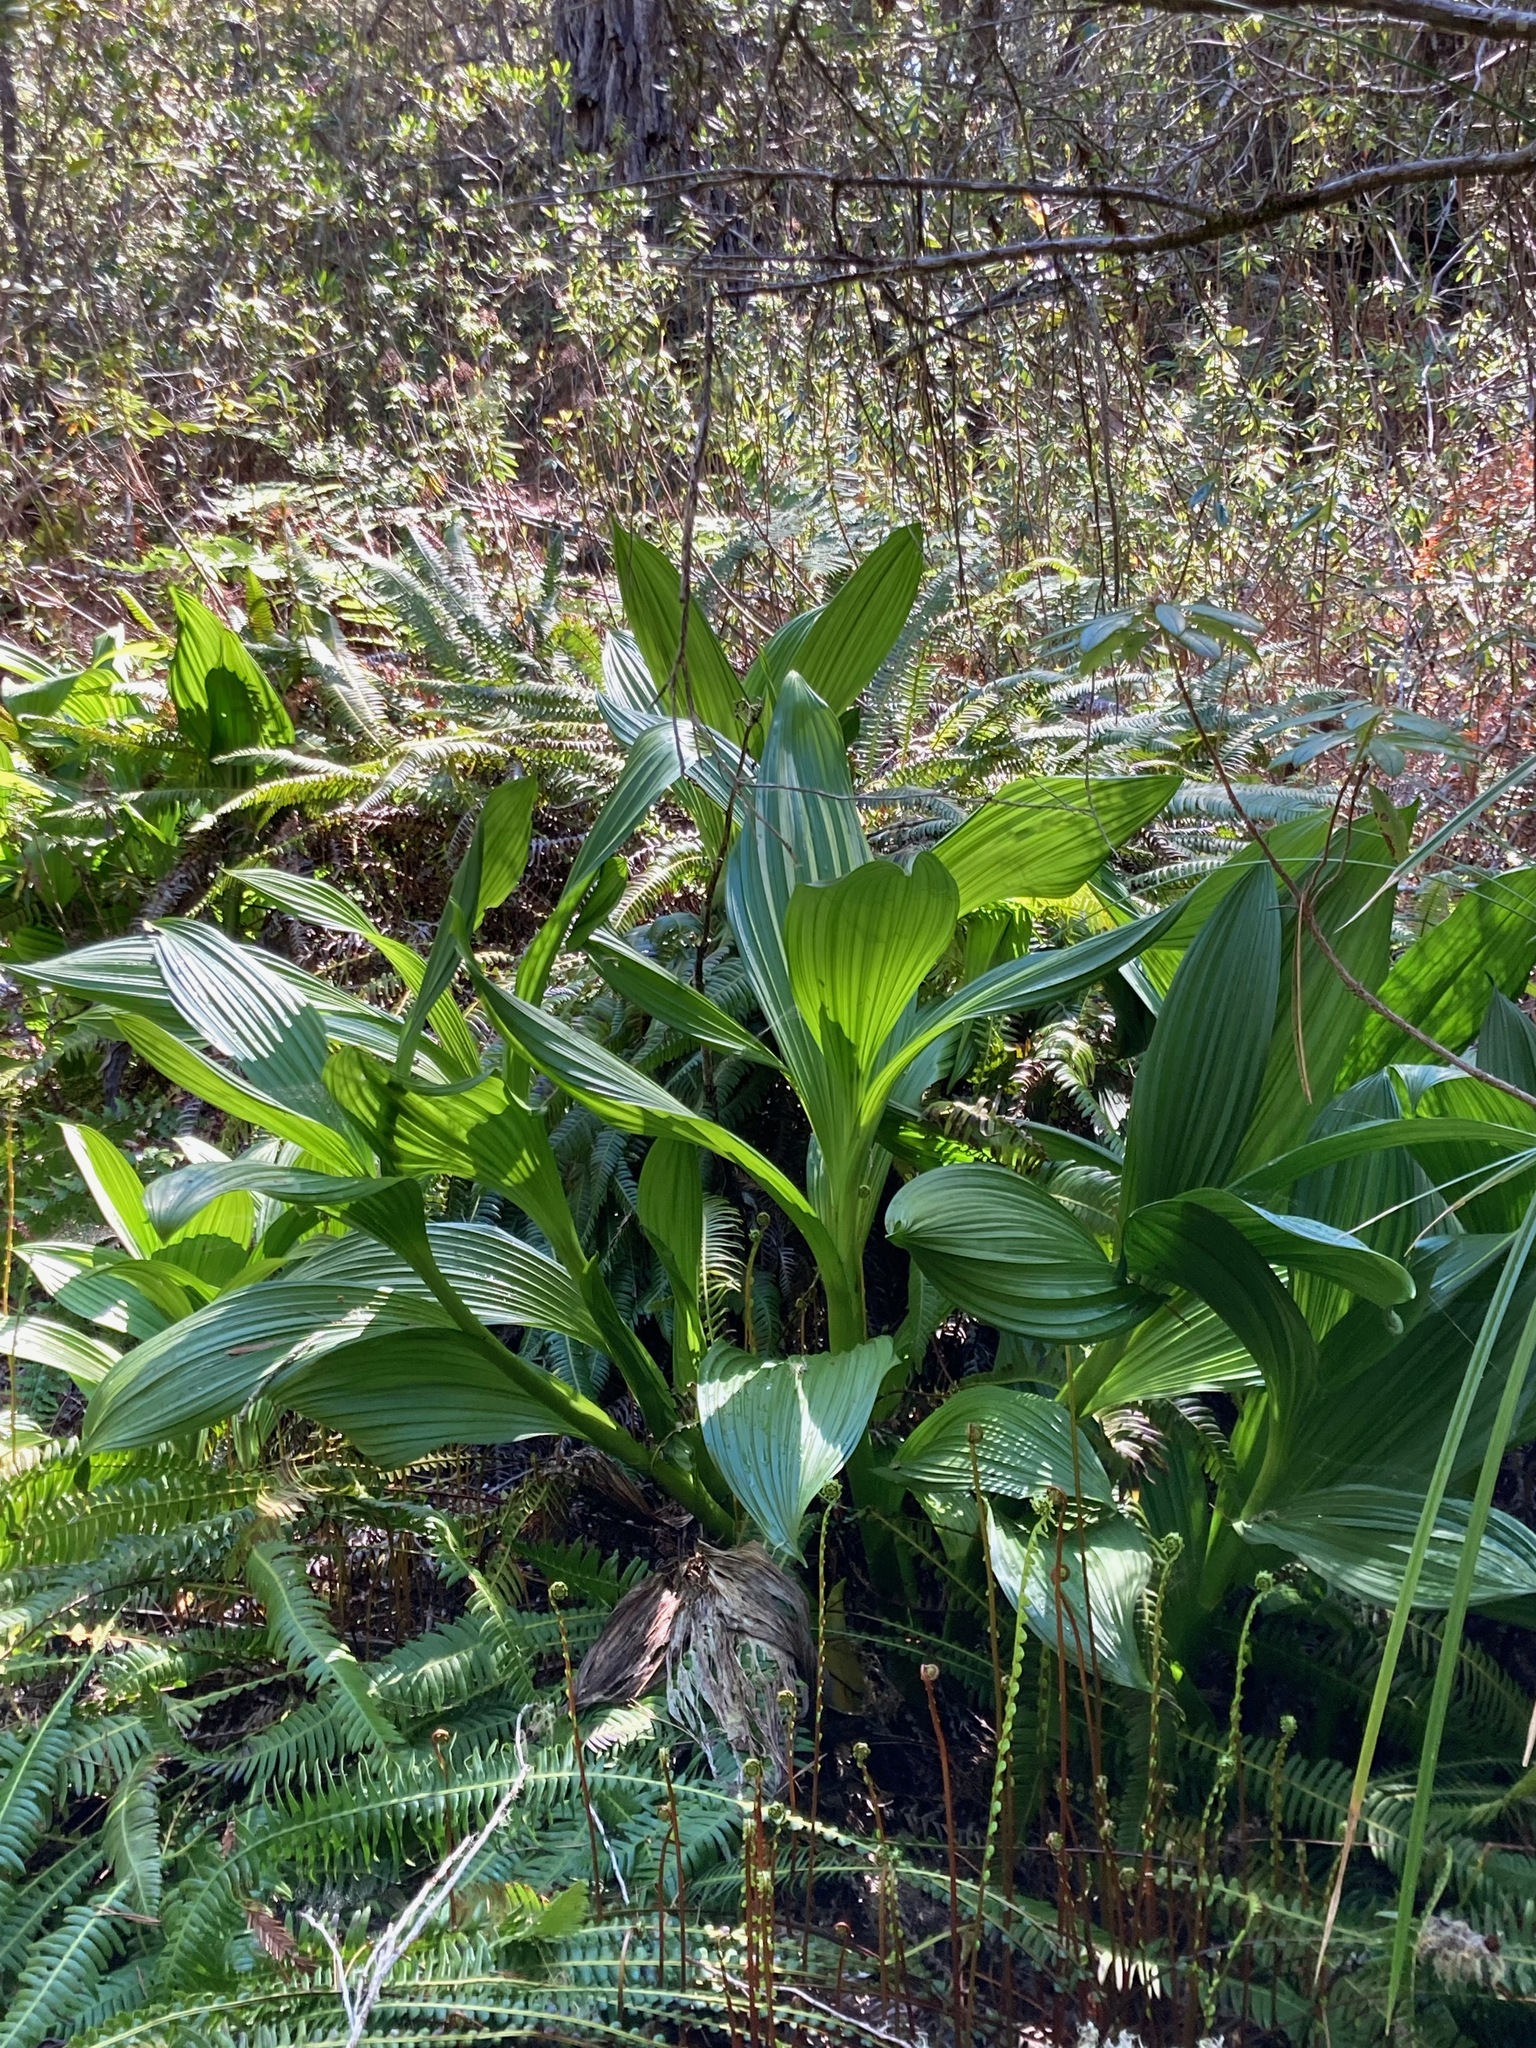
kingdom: Plantae
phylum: Tracheophyta
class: Liliopsida
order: Liliales
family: Melanthiaceae
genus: Veratrum
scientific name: Veratrum fimbriatum
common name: Fringe false hellobore
